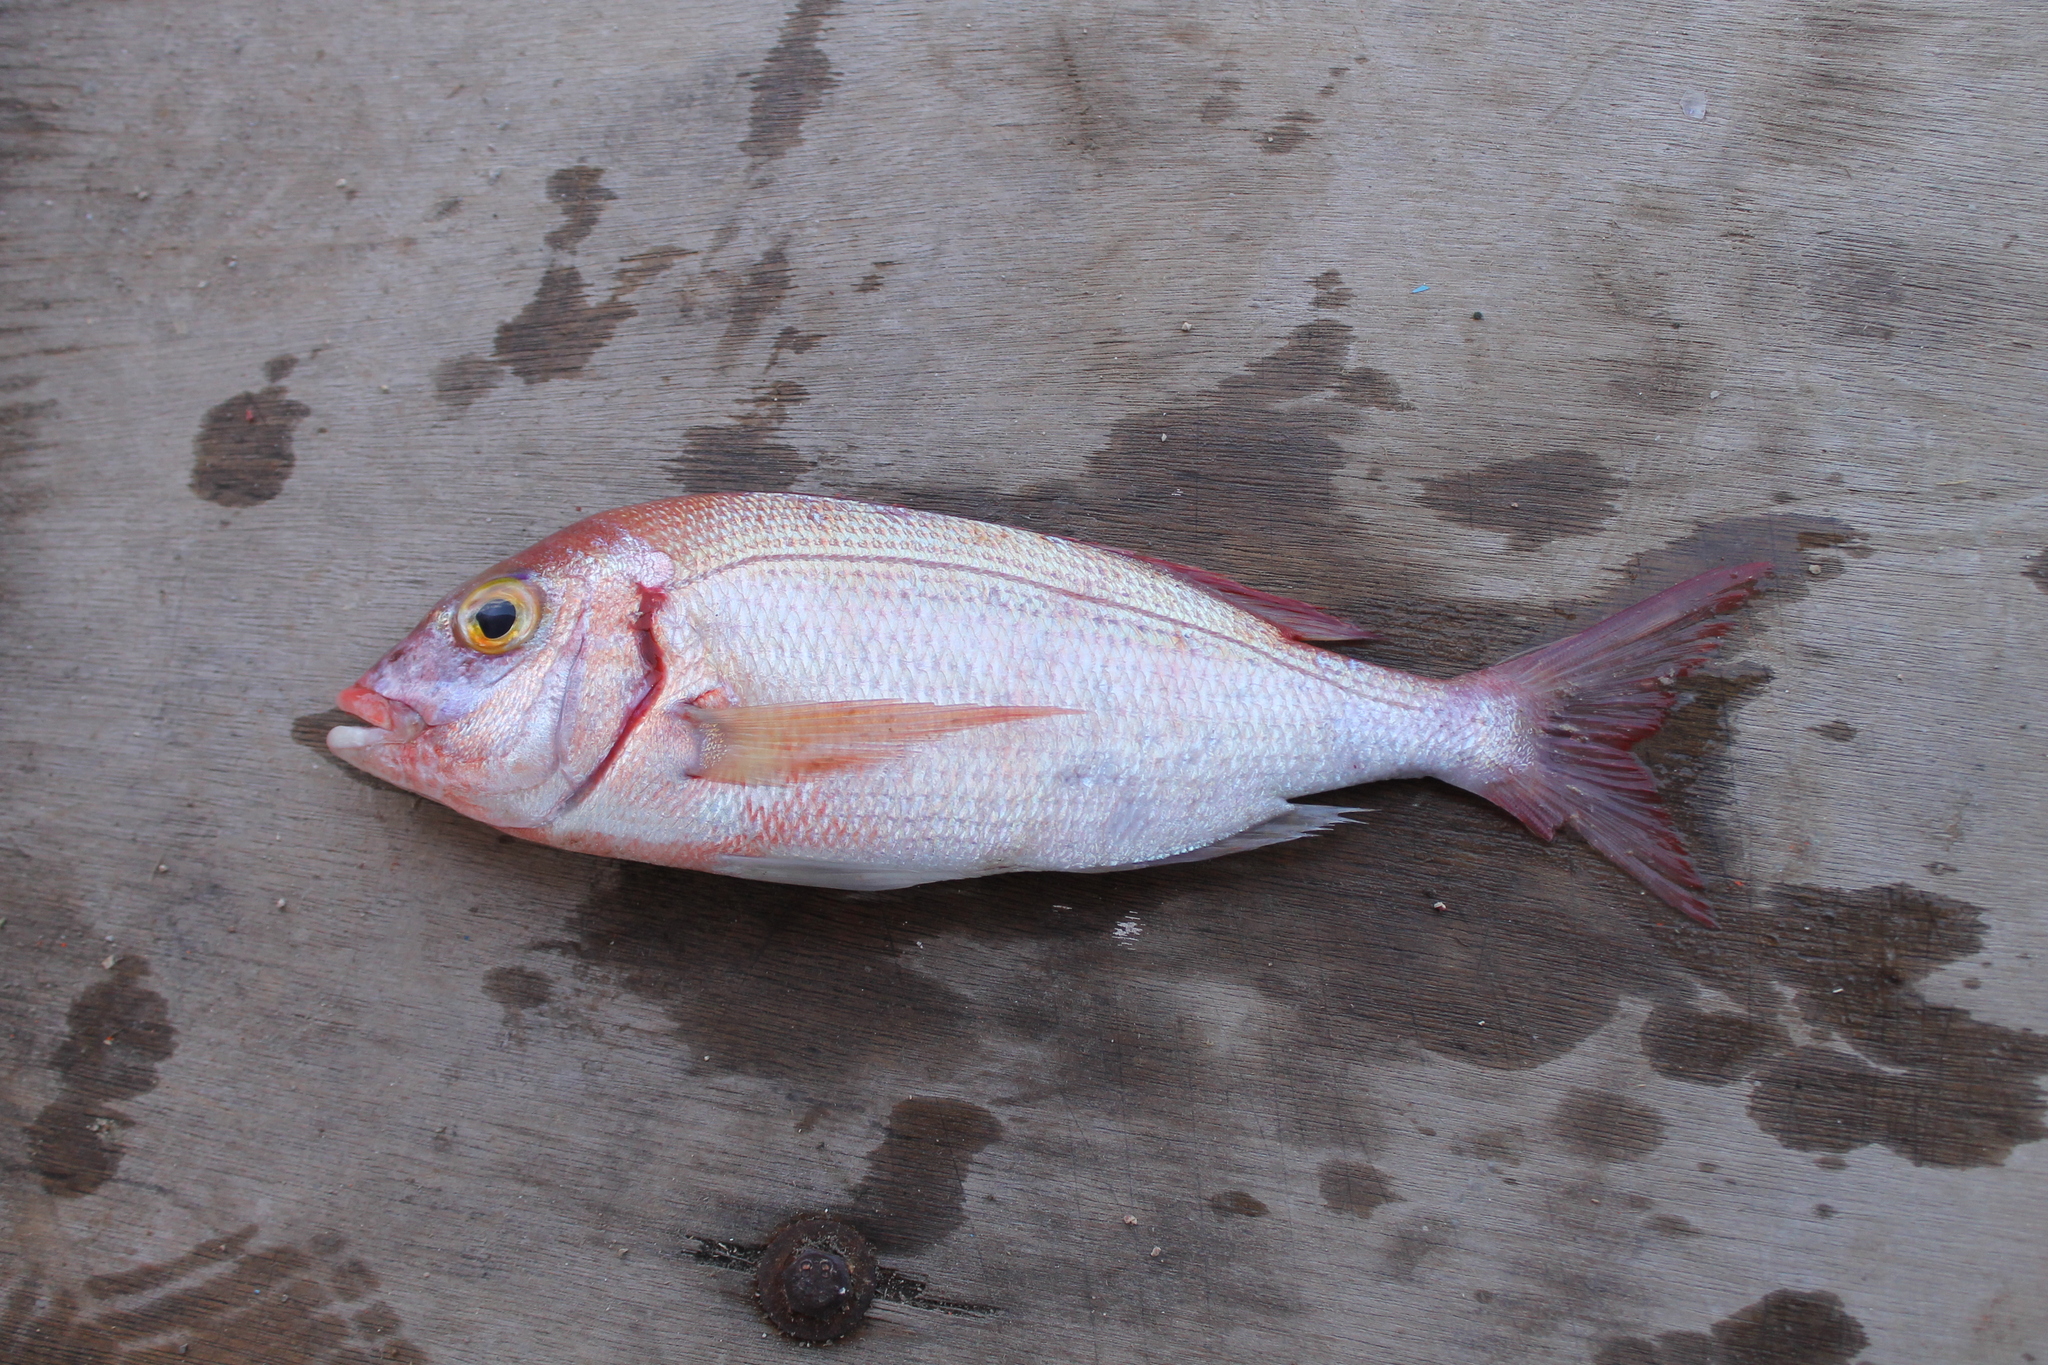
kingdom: Animalia
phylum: Chordata
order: Perciformes
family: Sparidae
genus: Pagellus
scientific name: Pagellus erythrinus
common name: Pandora
